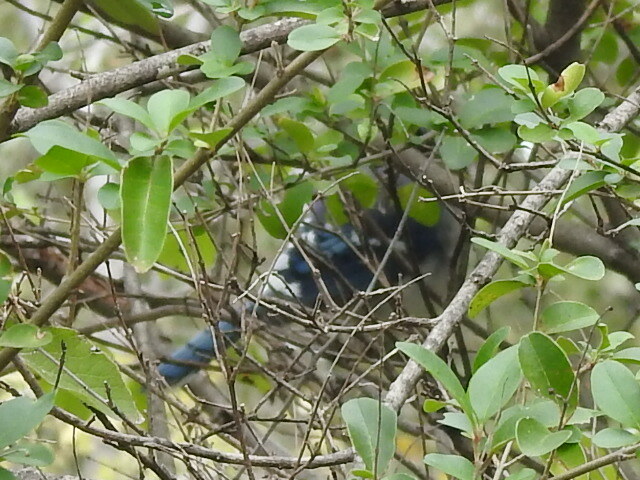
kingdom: Animalia
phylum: Chordata
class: Aves
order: Passeriformes
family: Corvidae
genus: Cyanocitta
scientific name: Cyanocitta cristata
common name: Blue jay
